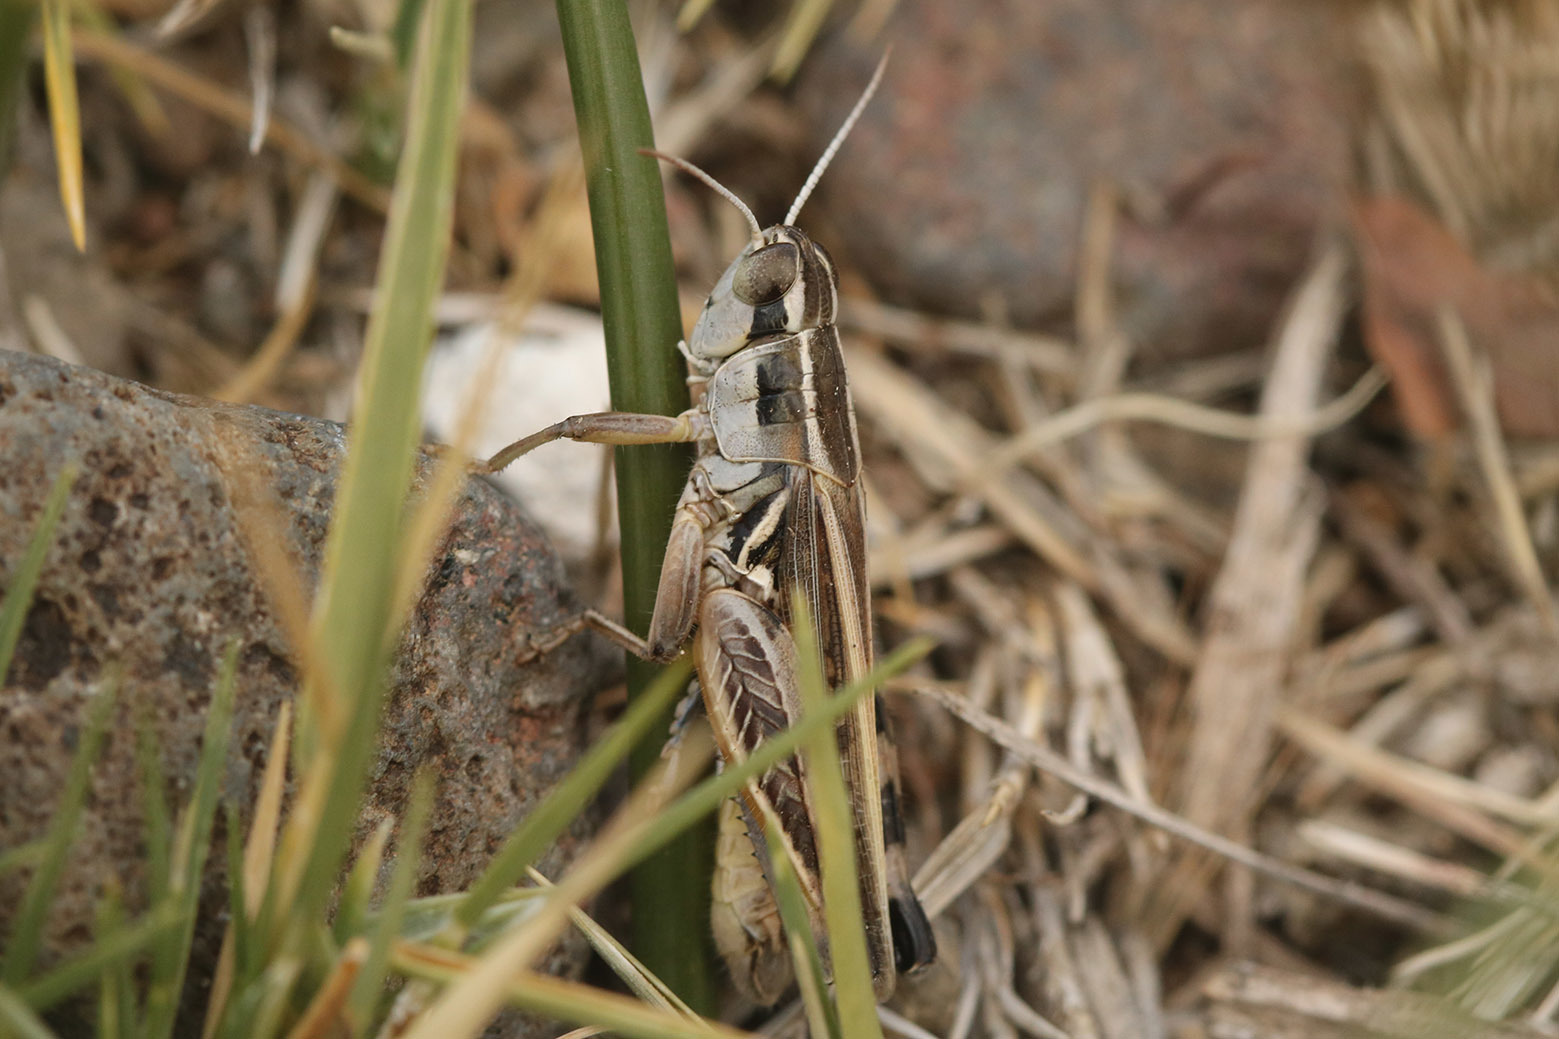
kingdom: Animalia
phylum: Arthropoda
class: Insecta
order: Orthoptera
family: Acrididae
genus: Dichroplus
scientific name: Dichroplus pratensis
